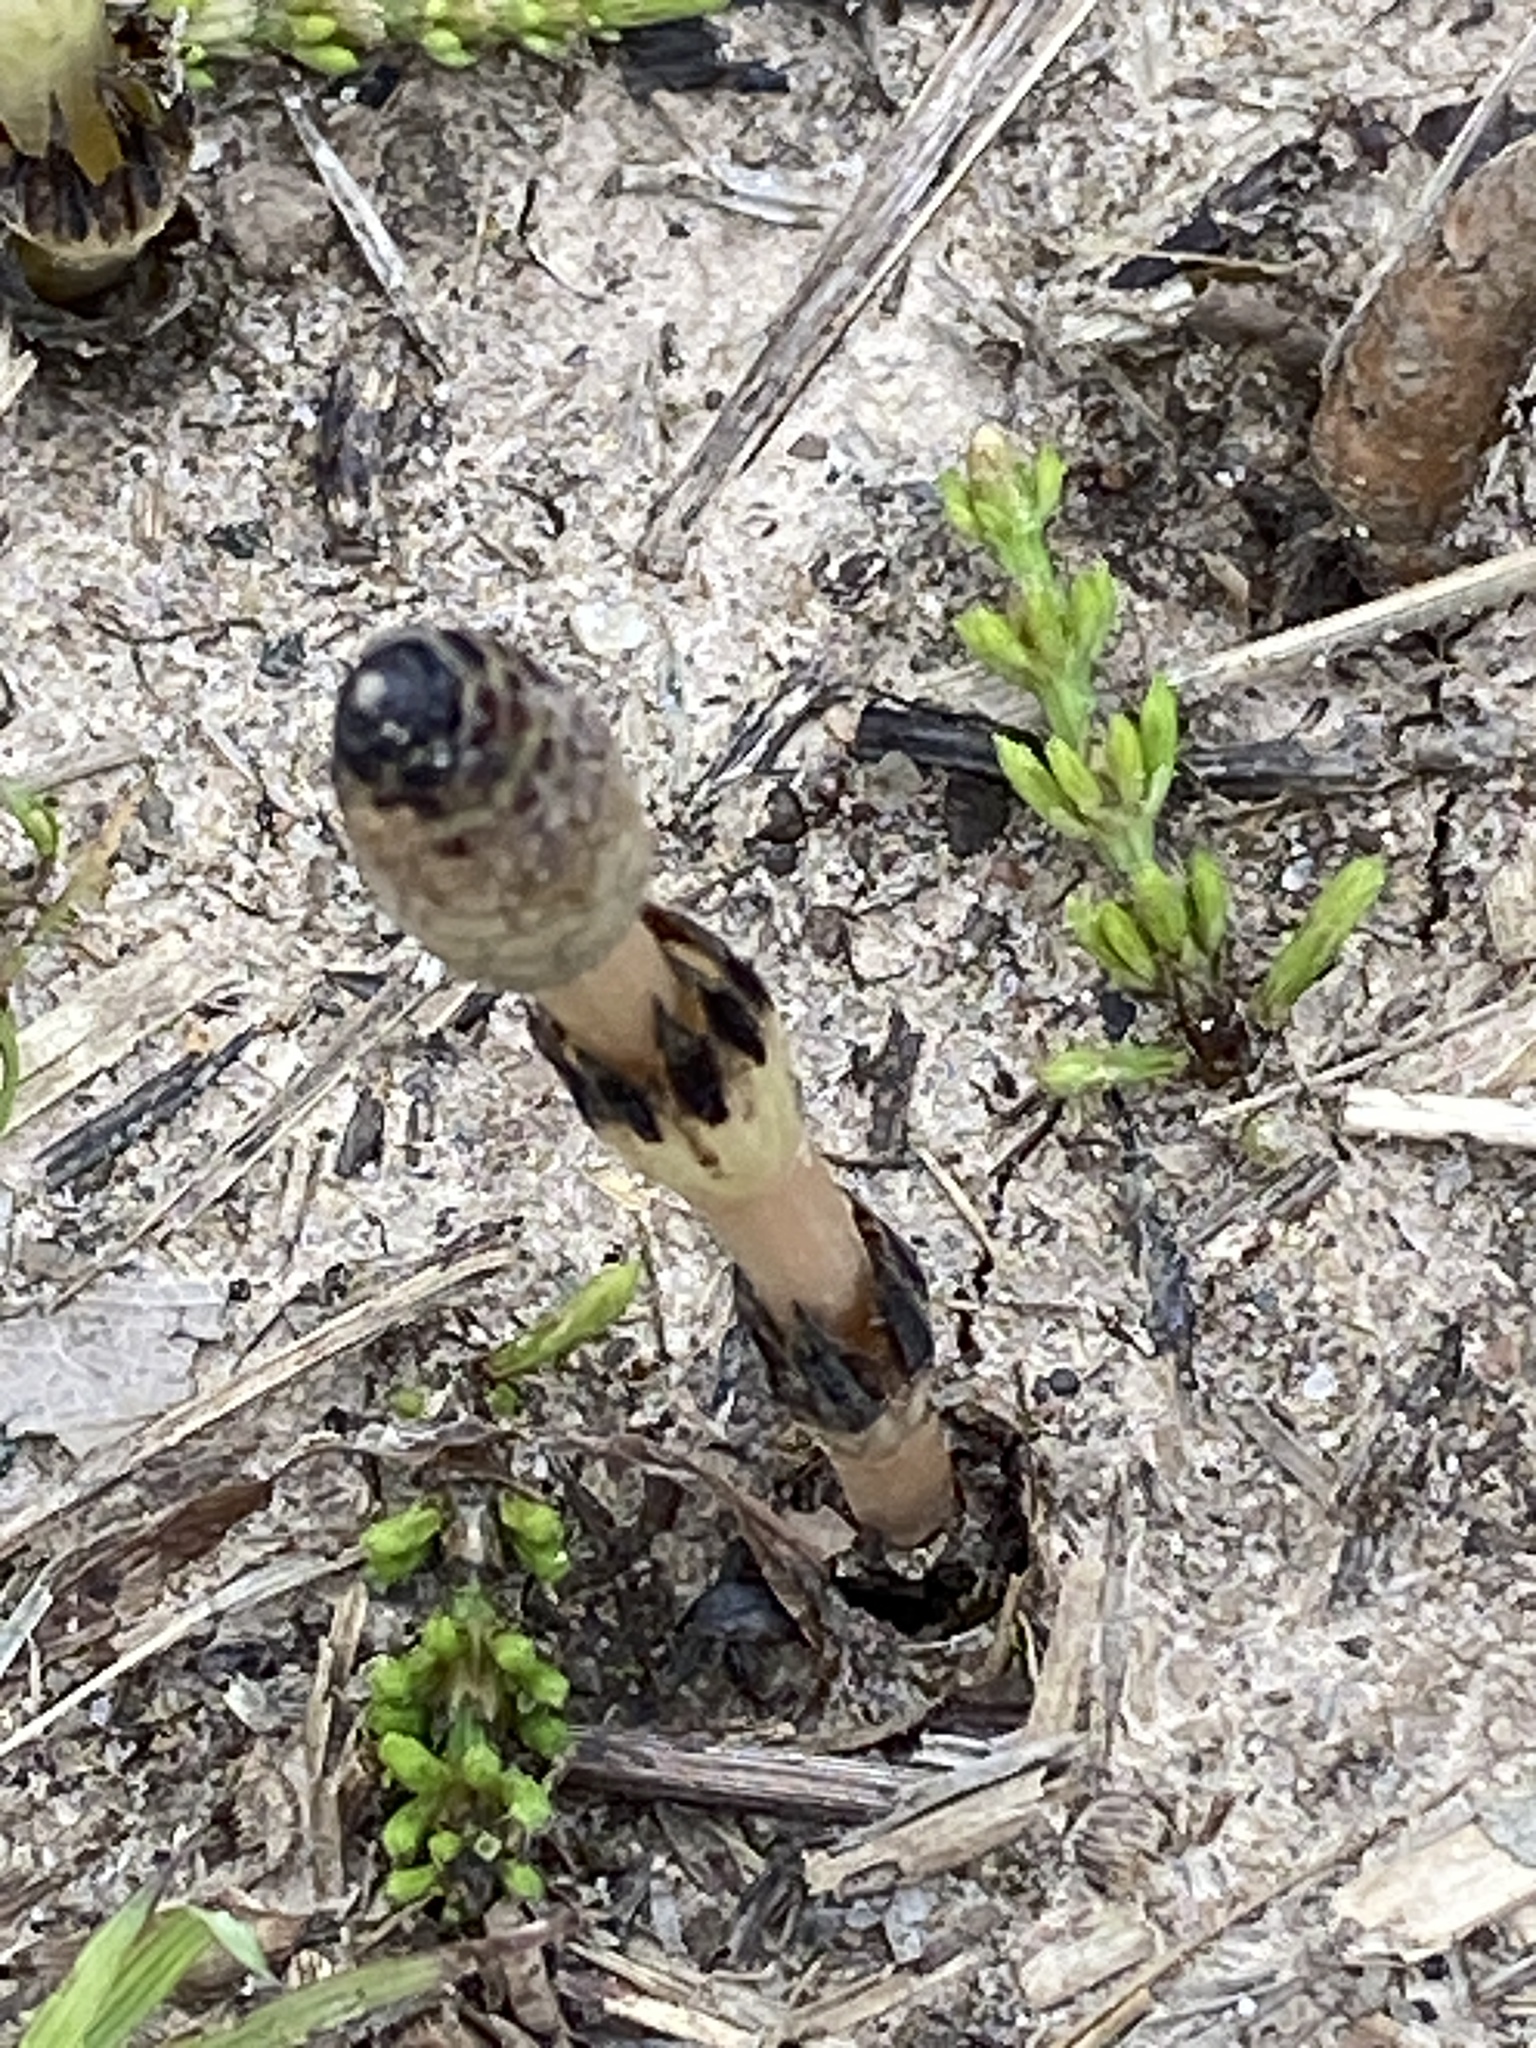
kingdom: Plantae
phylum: Tracheophyta
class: Polypodiopsida
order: Equisetales
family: Equisetaceae
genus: Equisetum
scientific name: Equisetum arvense
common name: Field horsetail
